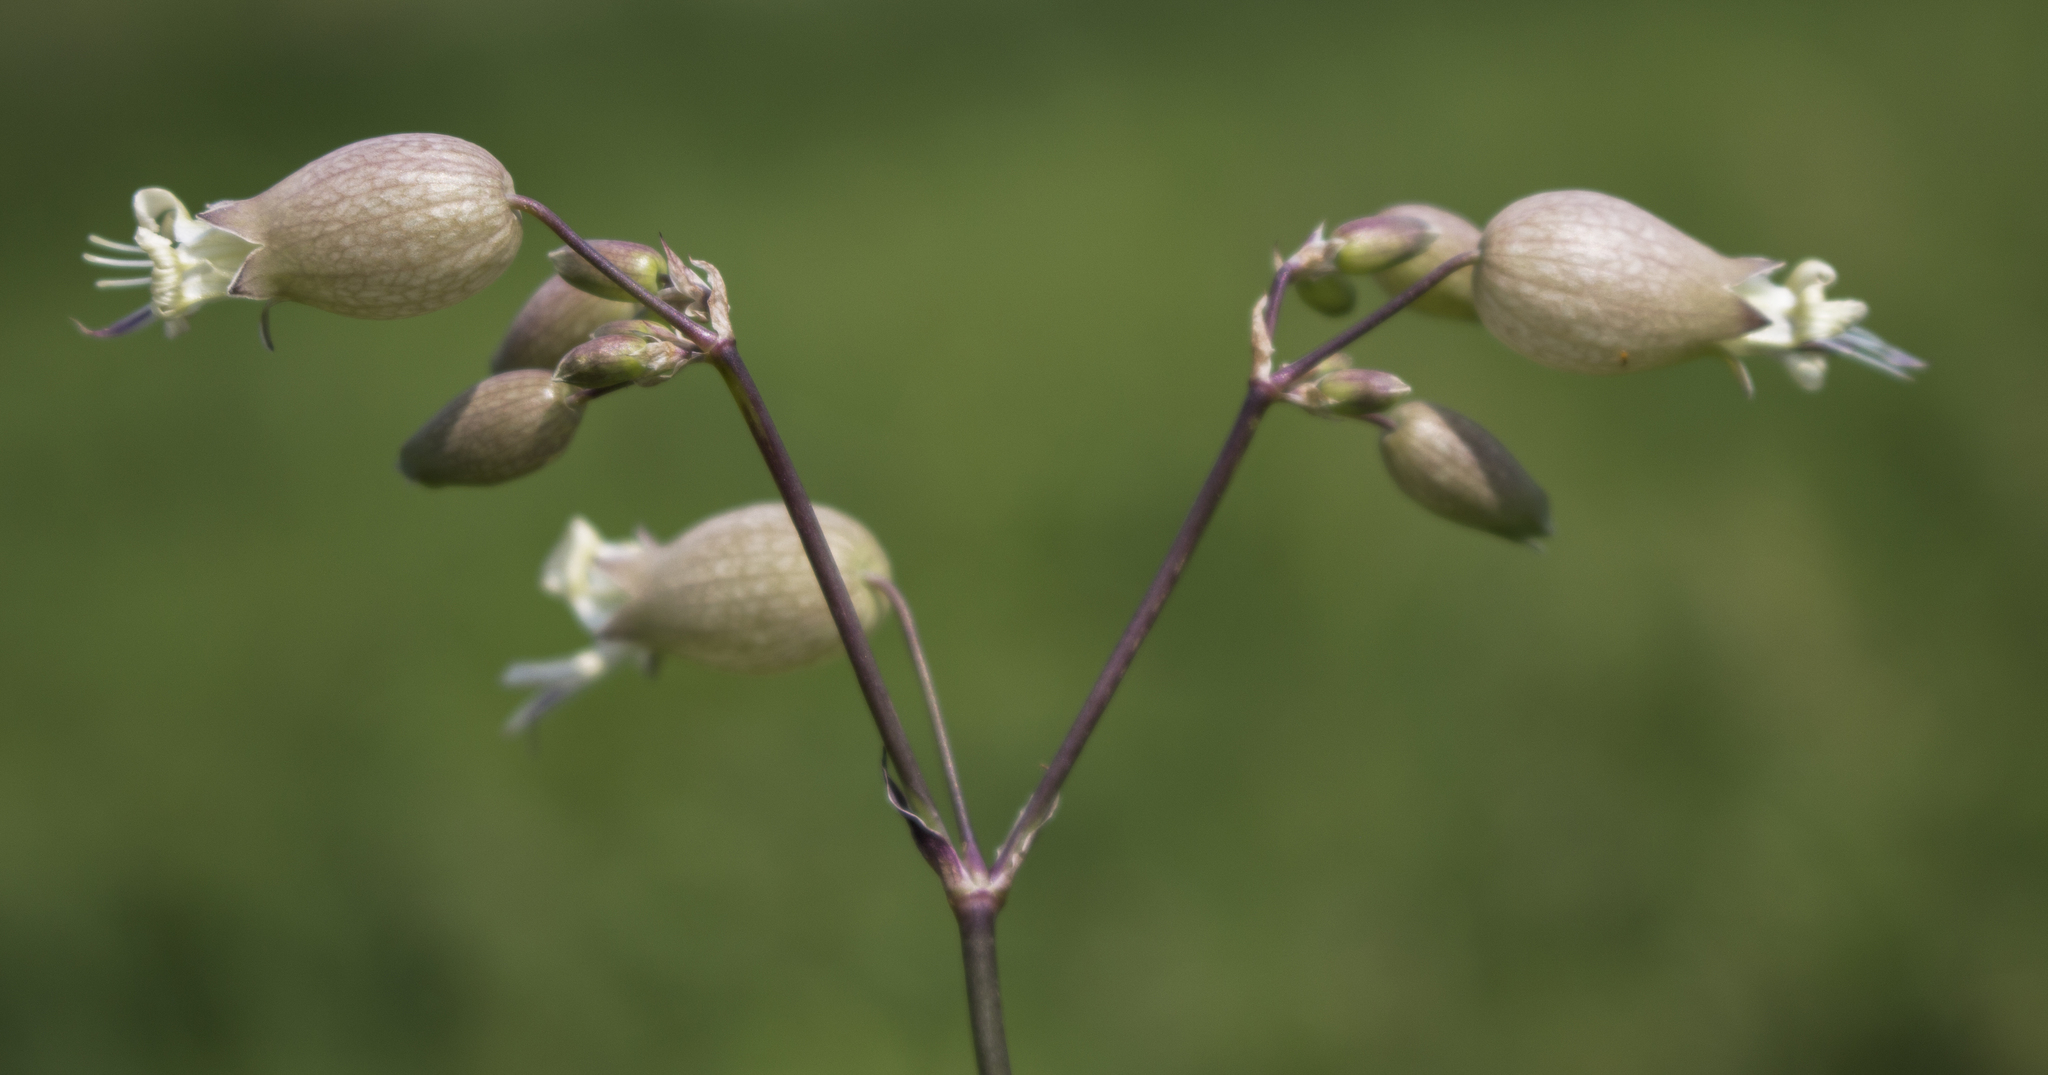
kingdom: Plantae
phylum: Tracheophyta
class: Magnoliopsida
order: Caryophyllales
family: Caryophyllaceae
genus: Silene
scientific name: Silene vulgaris
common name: Bladder campion
